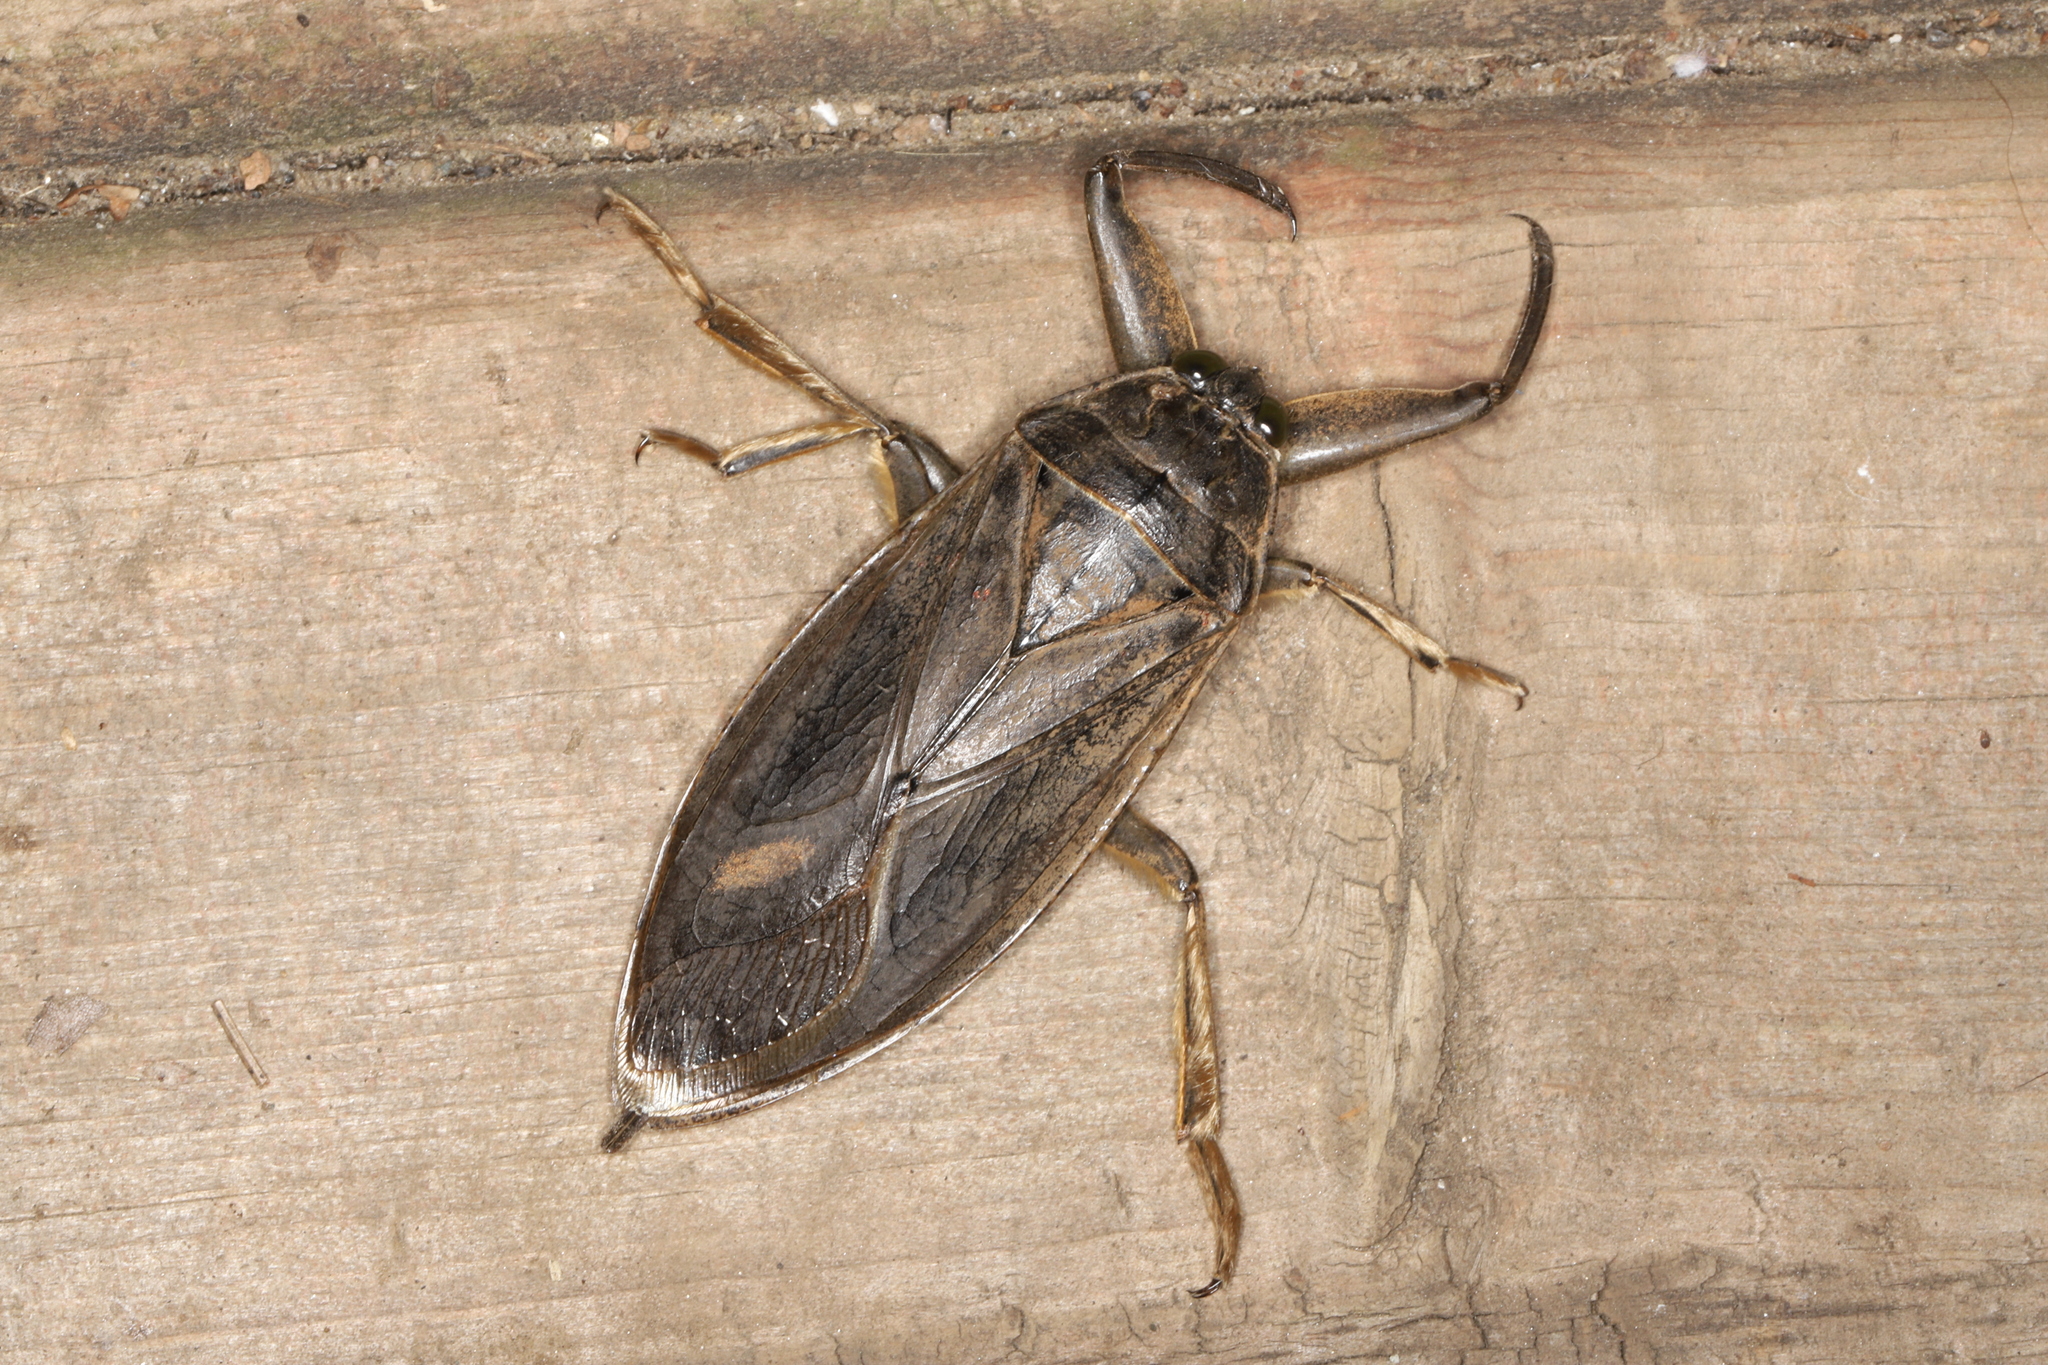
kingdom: Animalia
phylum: Arthropoda
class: Insecta
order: Hemiptera
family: Belostomatidae
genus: Lethocerus
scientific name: Lethocerus americanus
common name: Giant water bug
